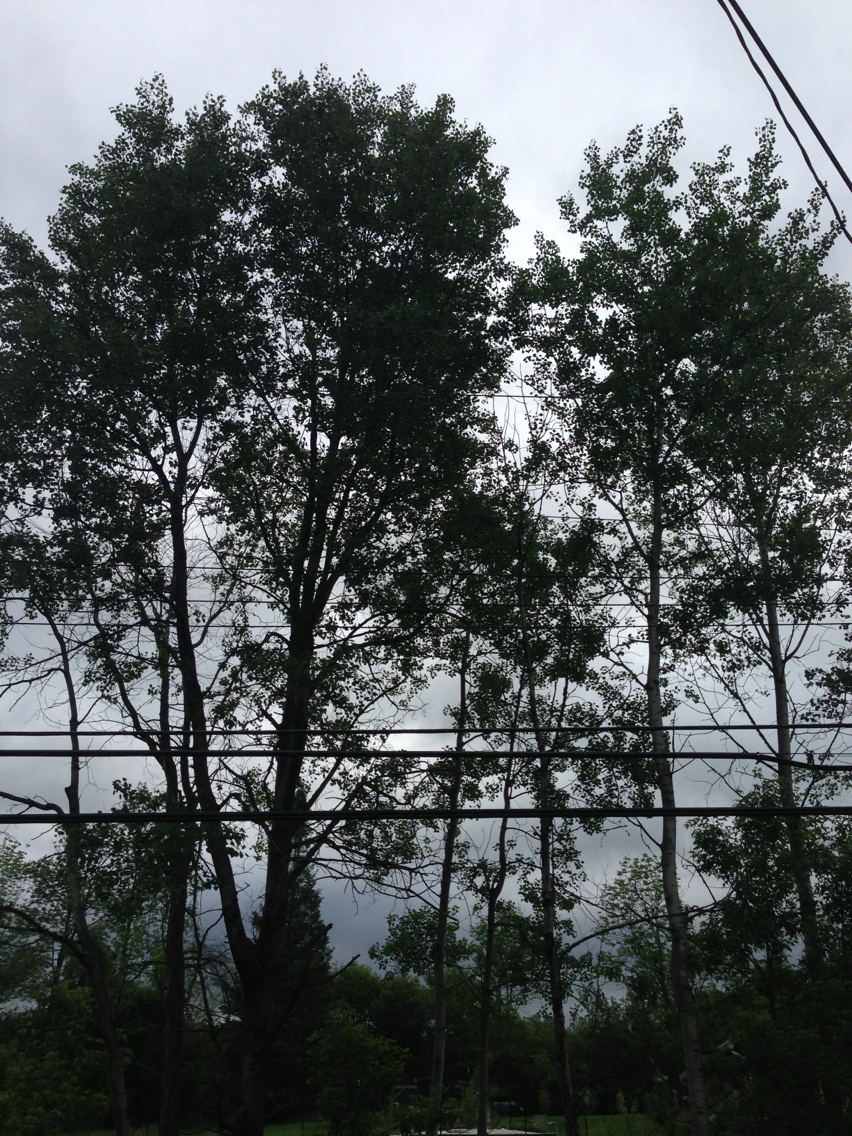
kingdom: Plantae
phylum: Tracheophyta
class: Magnoliopsida
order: Malpighiales
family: Salicaceae
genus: Populus
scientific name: Populus tremuloides
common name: Quaking aspen
